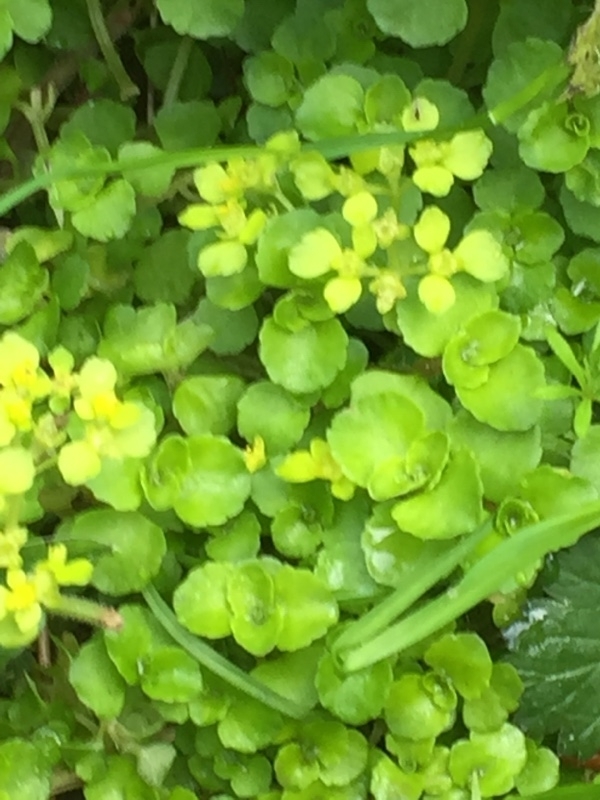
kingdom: Plantae
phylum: Tracheophyta
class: Magnoliopsida
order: Saxifragales
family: Saxifragaceae
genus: Chrysosplenium
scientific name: Chrysosplenium oppositifolium
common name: Opposite-leaved golden-saxifrage
